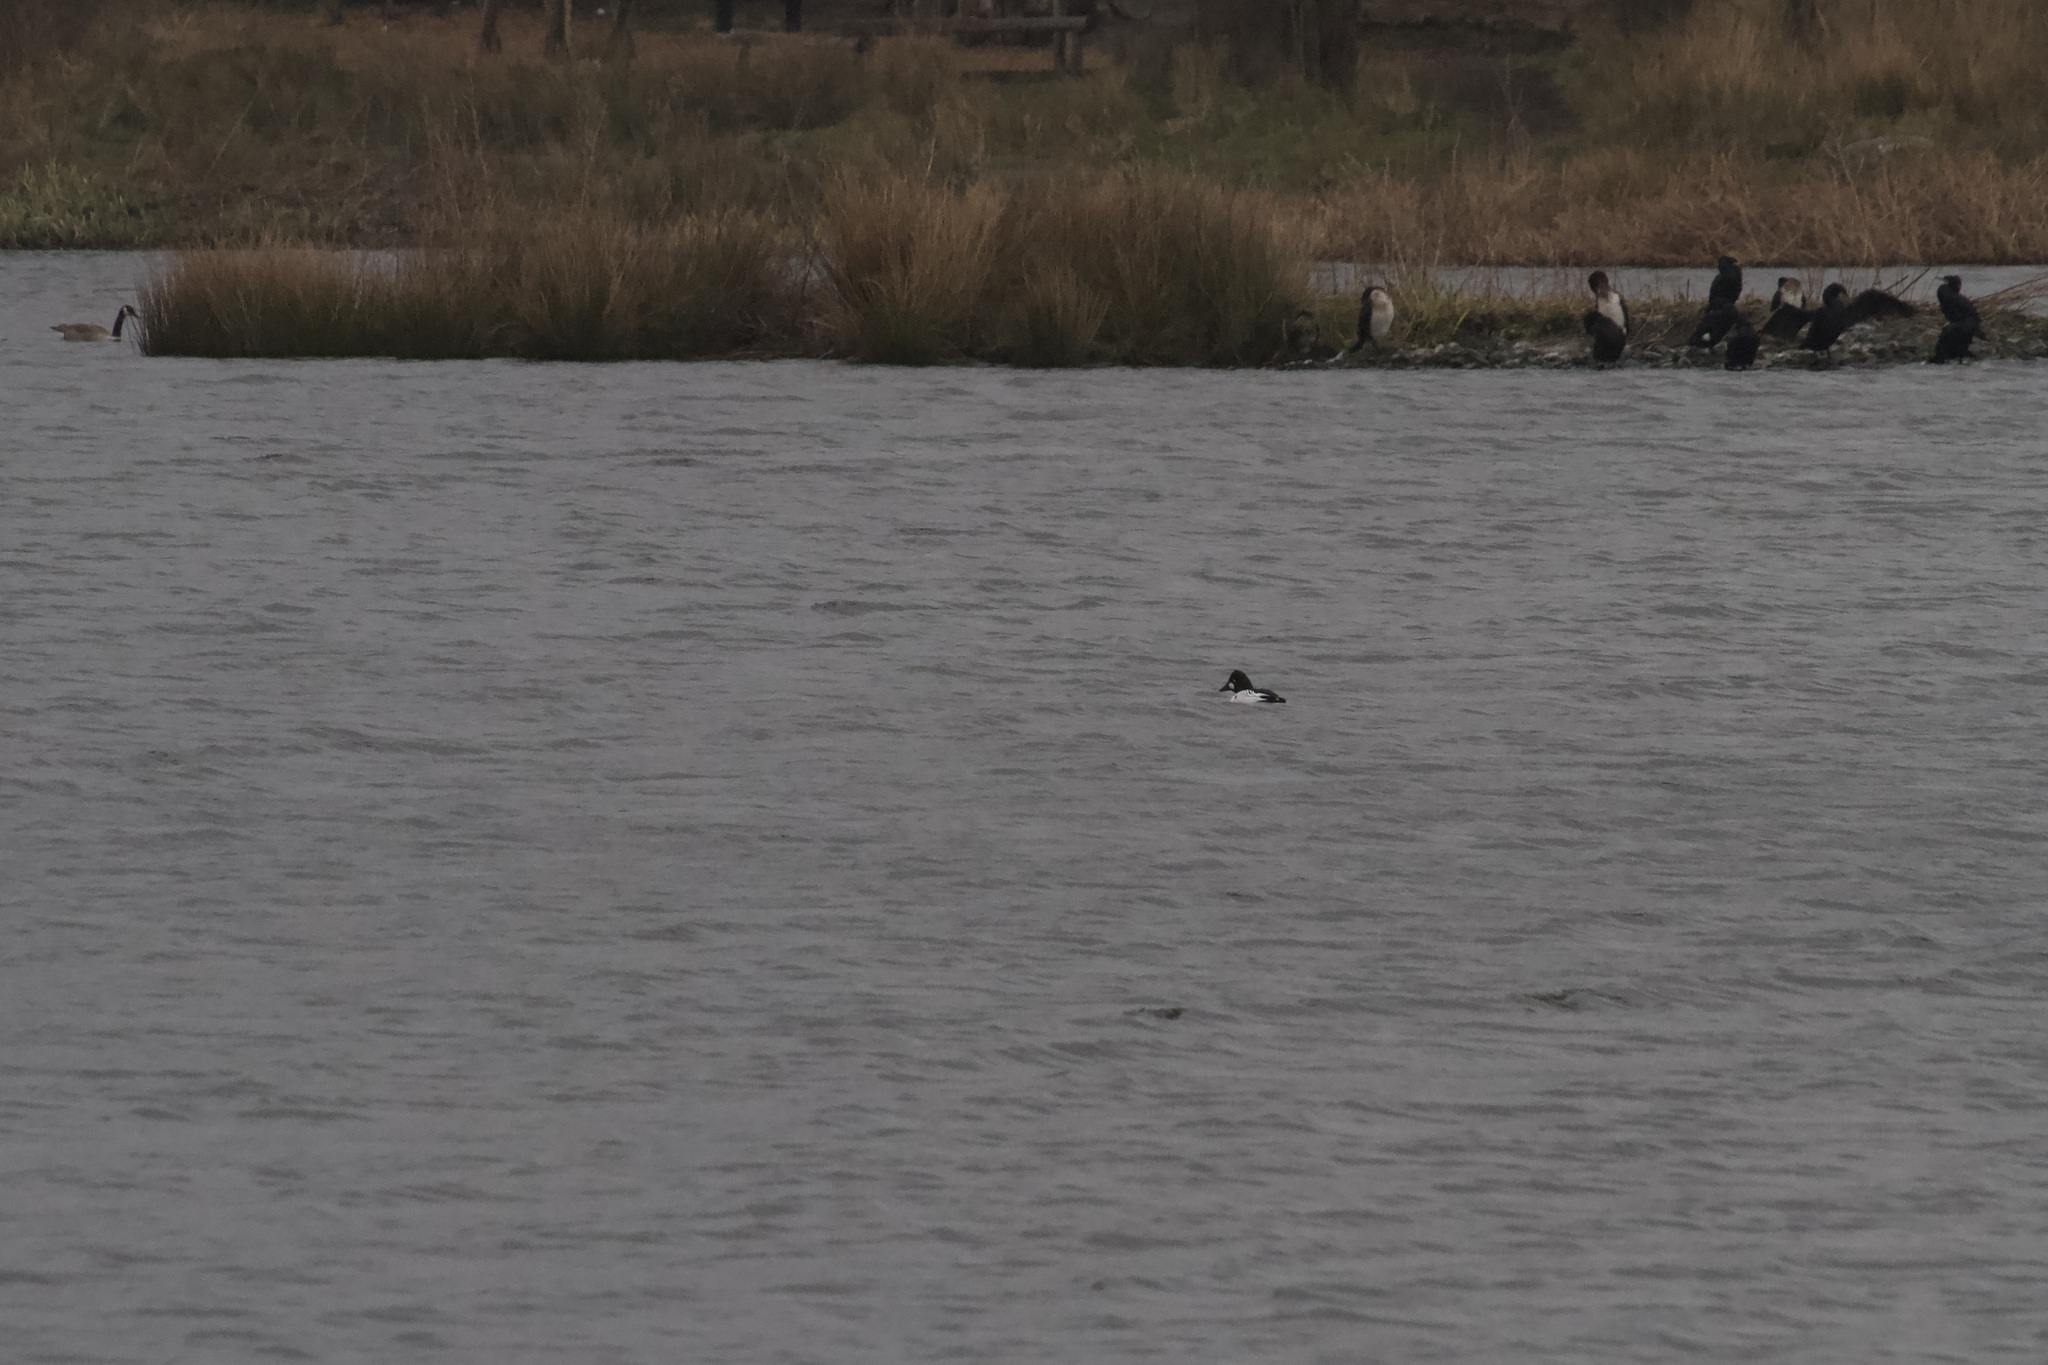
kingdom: Animalia
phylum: Chordata
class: Aves
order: Anseriformes
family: Anatidae
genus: Bucephala
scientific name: Bucephala clangula
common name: Common goldeneye
